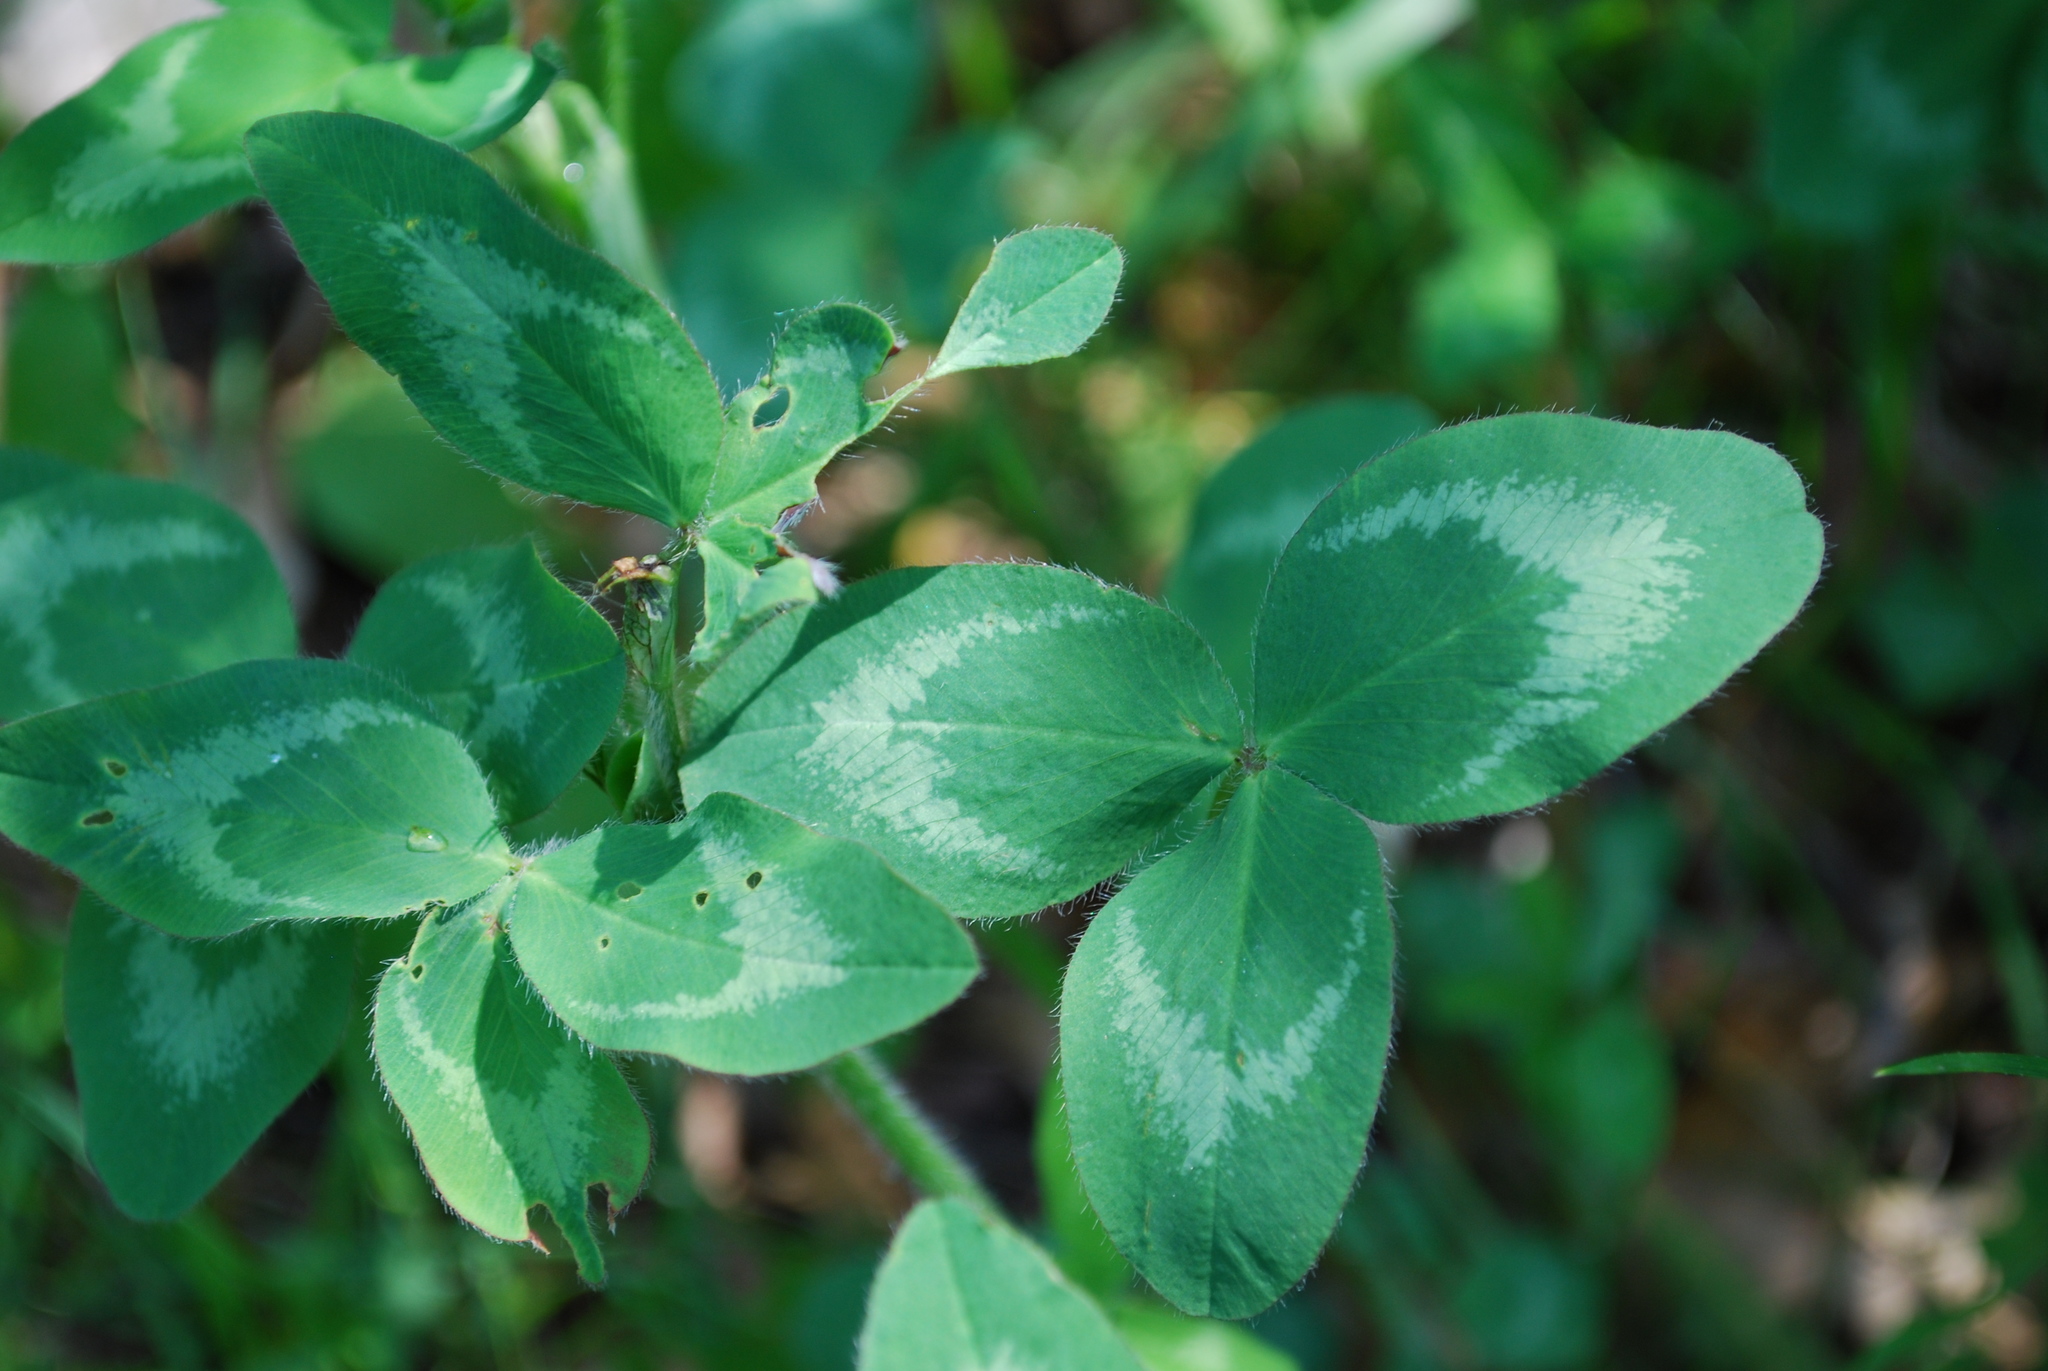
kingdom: Plantae
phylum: Tracheophyta
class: Magnoliopsida
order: Fabales
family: Fabaceae
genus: Trifolium
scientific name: Trifolium pratense
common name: Red clover
